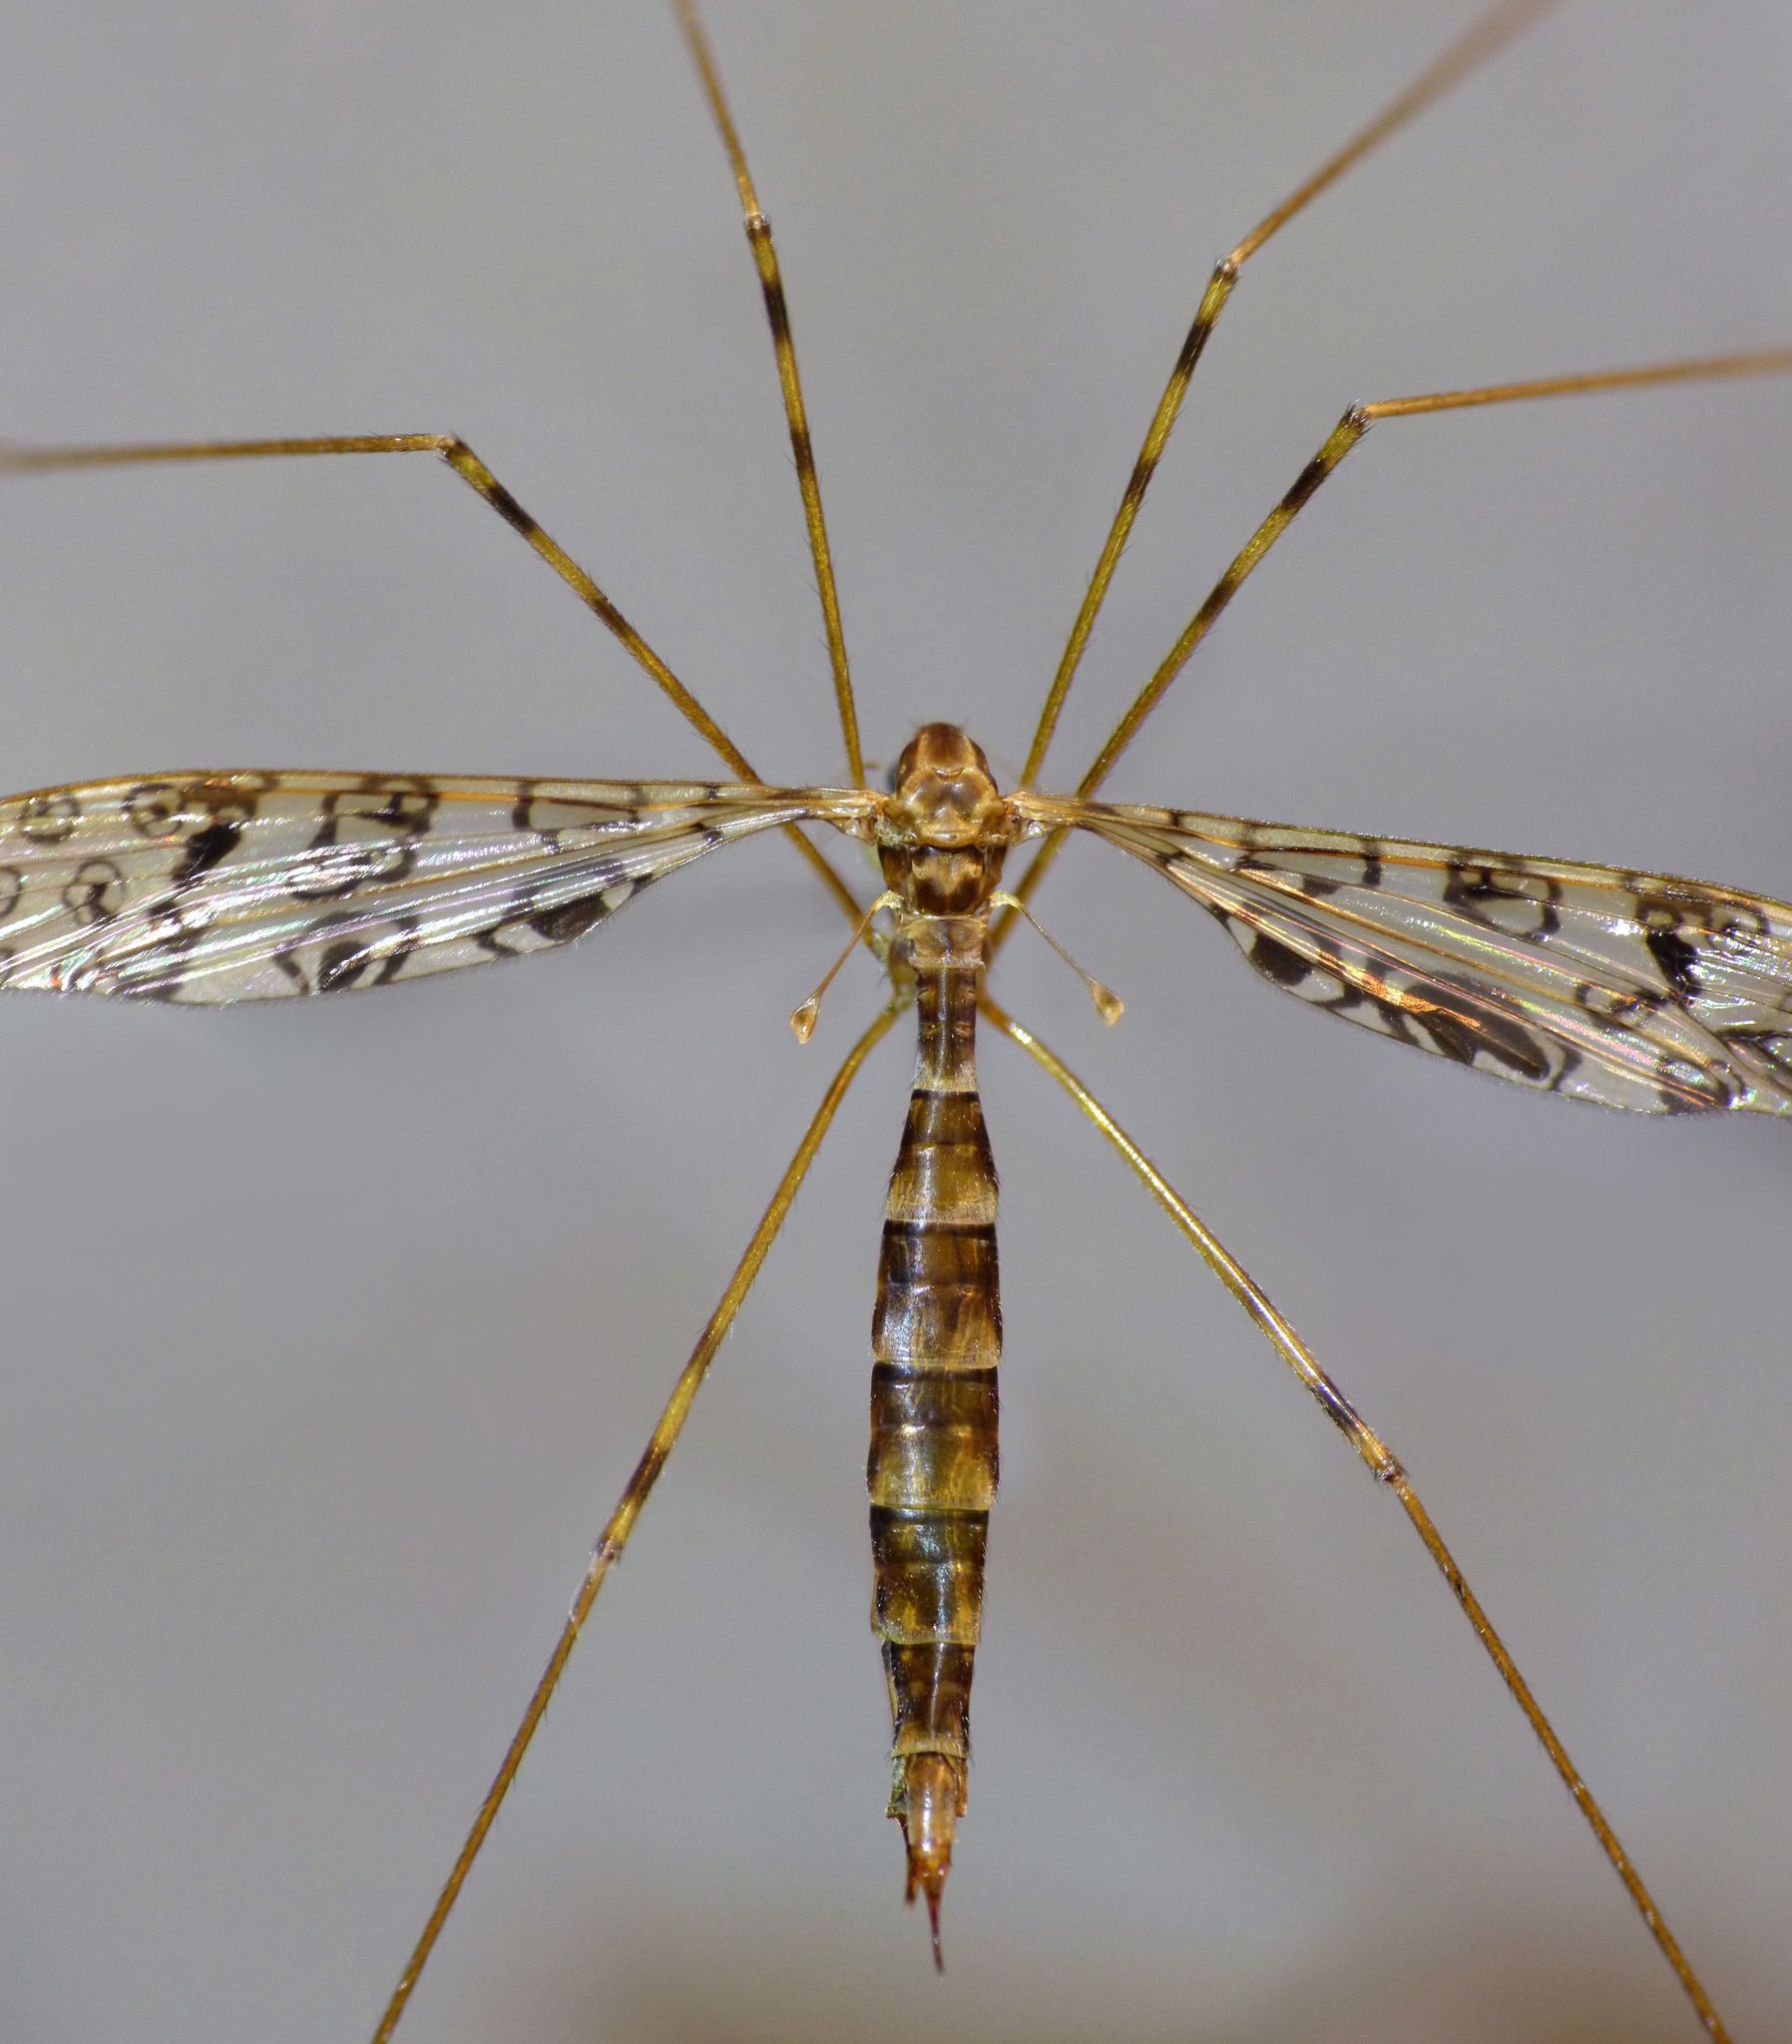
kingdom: Animalia
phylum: Arthropoda
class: Insecta
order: Diptera
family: Limoniidae
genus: Austrolimnophila
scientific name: Austrolimnophila argus
